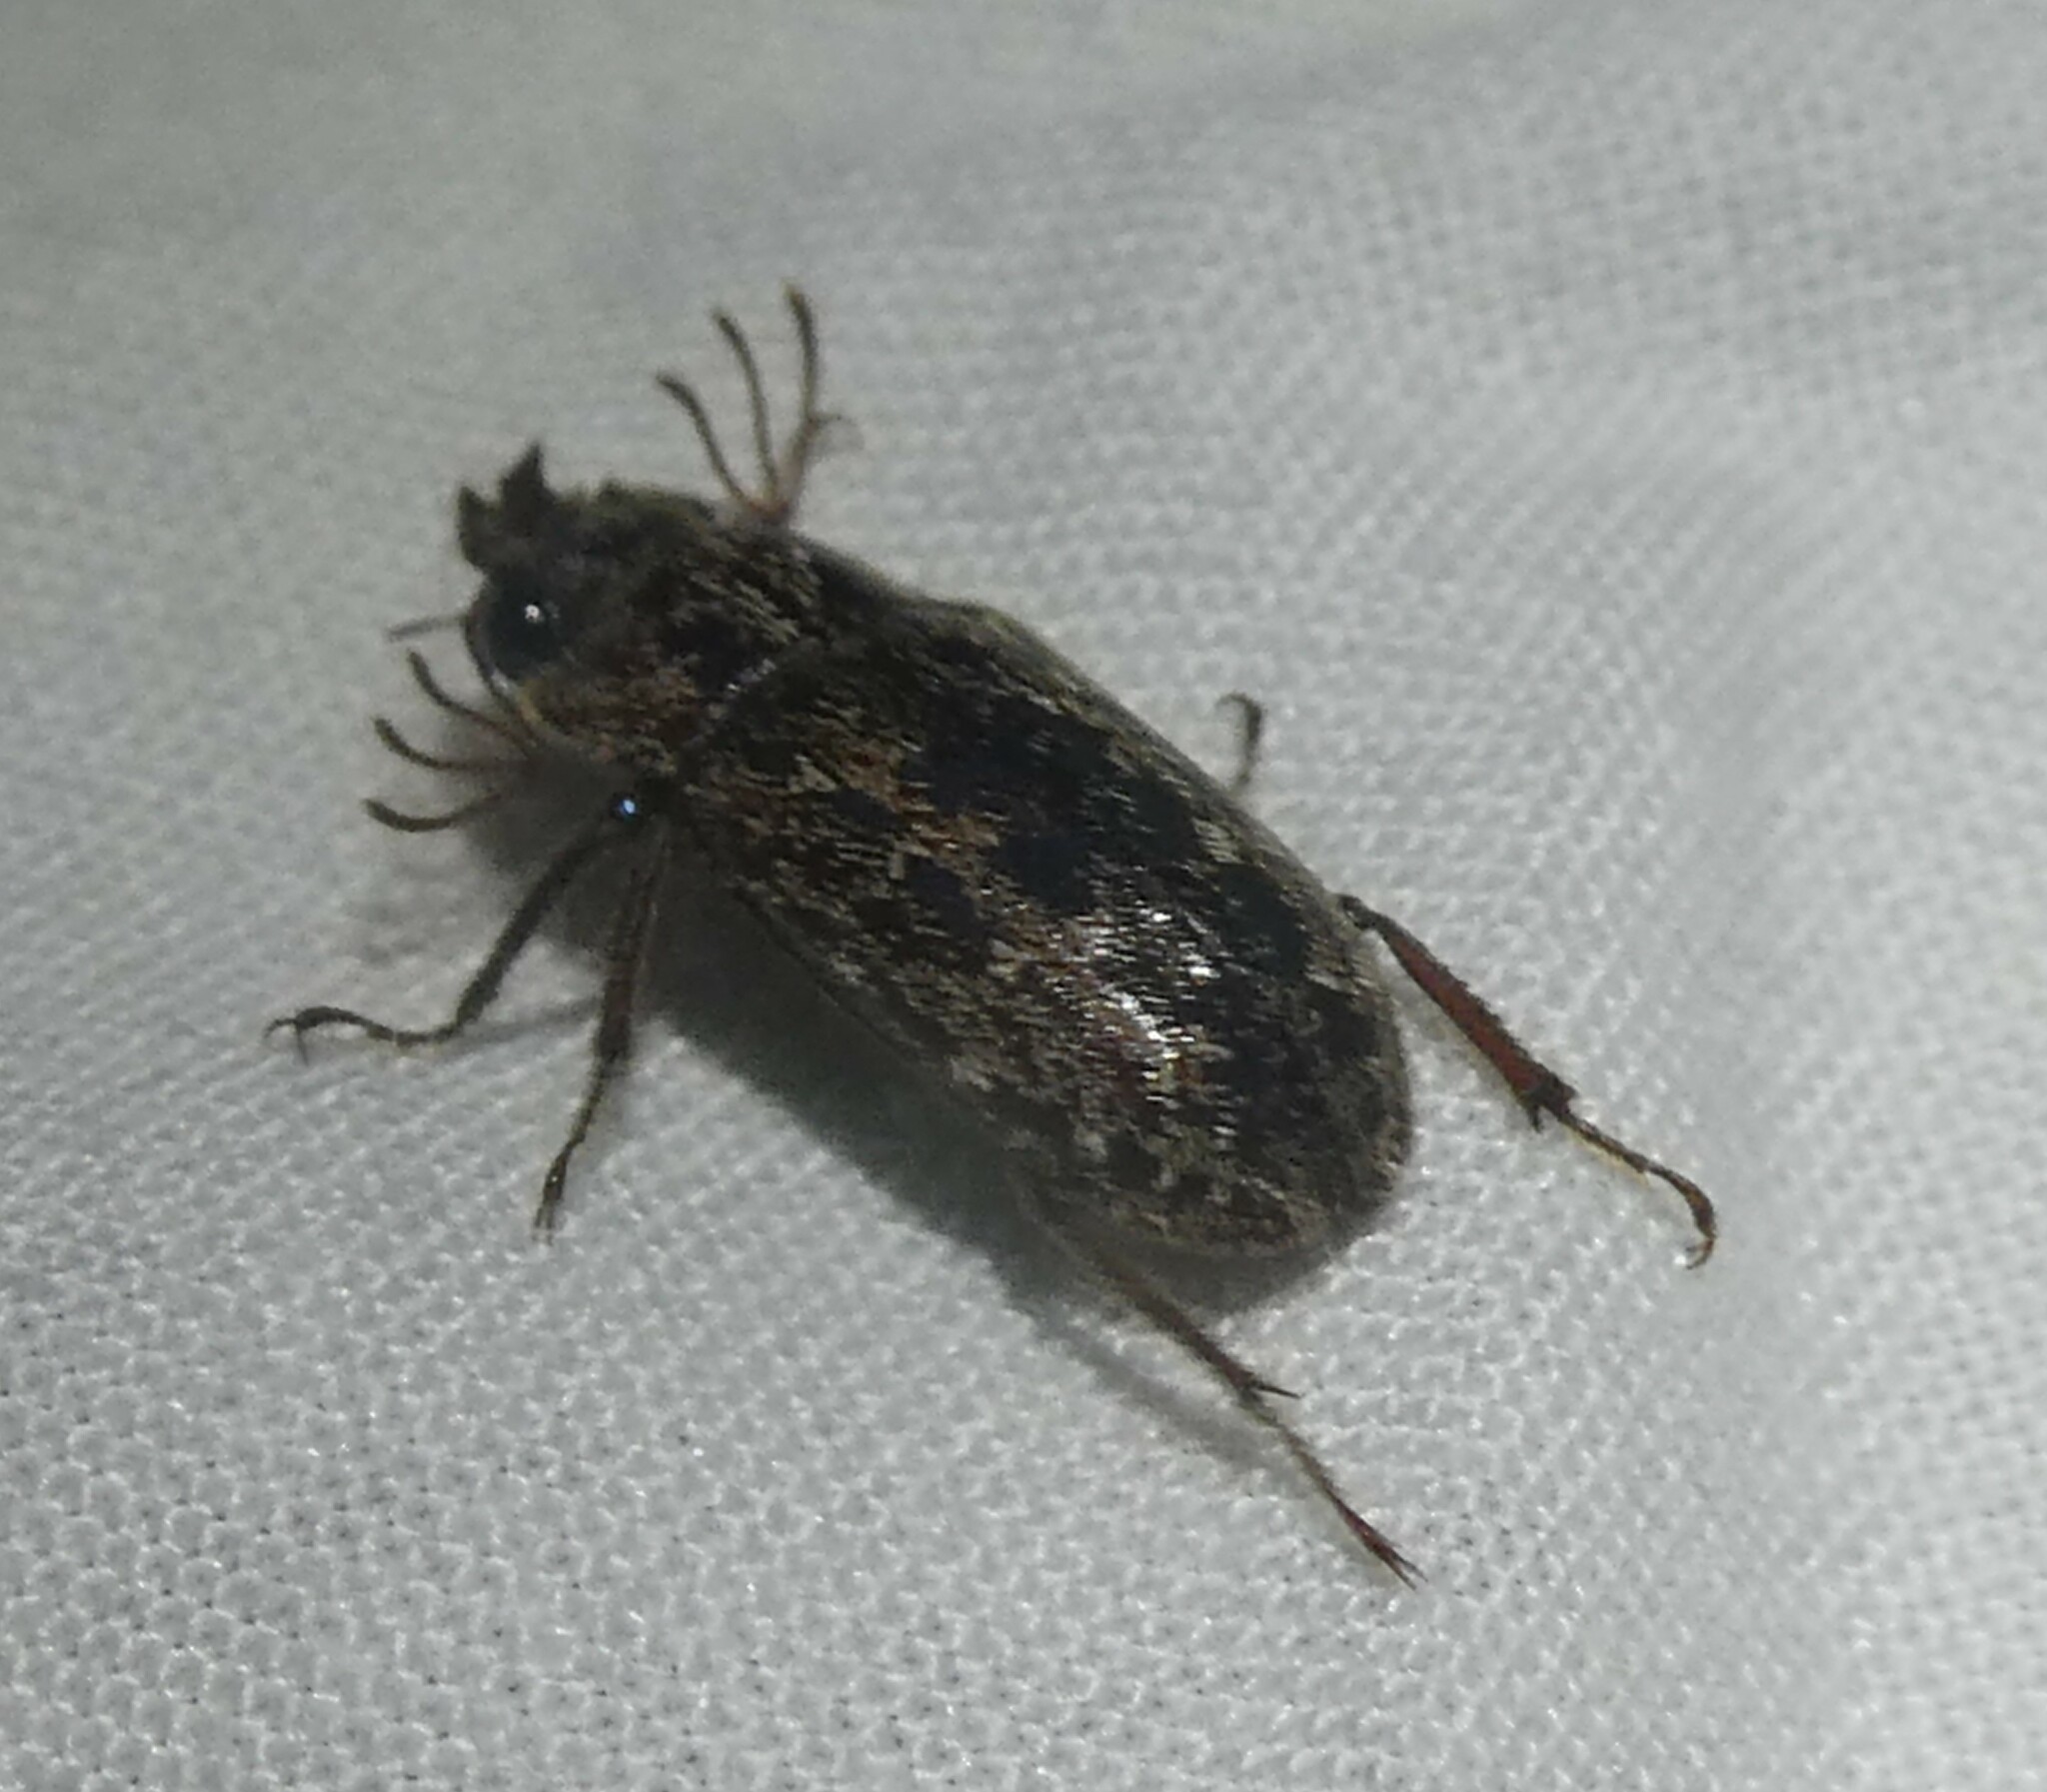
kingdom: Animalia
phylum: Arthropoda
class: Insecta
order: Coleoptera
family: Lucanidae
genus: Mitophyllus
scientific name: Mitophyllus irroratus
